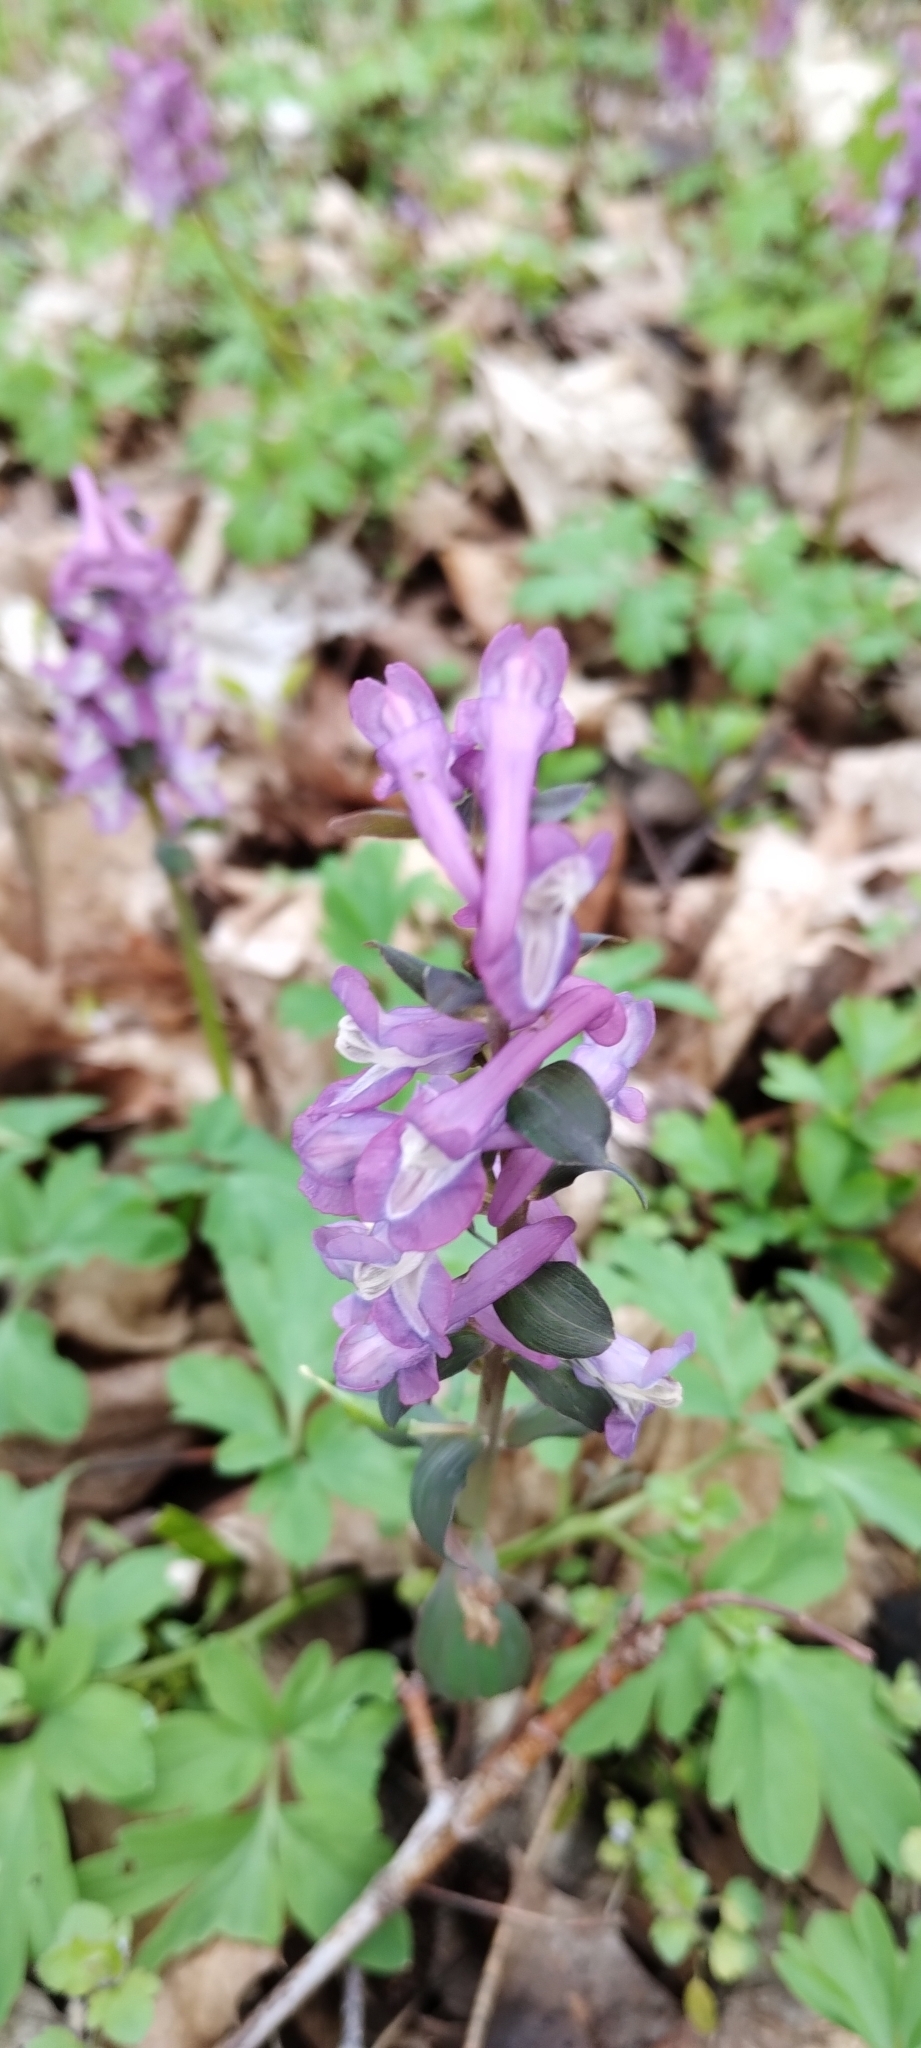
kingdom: Plantae
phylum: Tracheophyta
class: Magnoliopsida
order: Ranunculales
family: Papaveraceae
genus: Corydalis
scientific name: Corydalis cava
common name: Hollowroot
